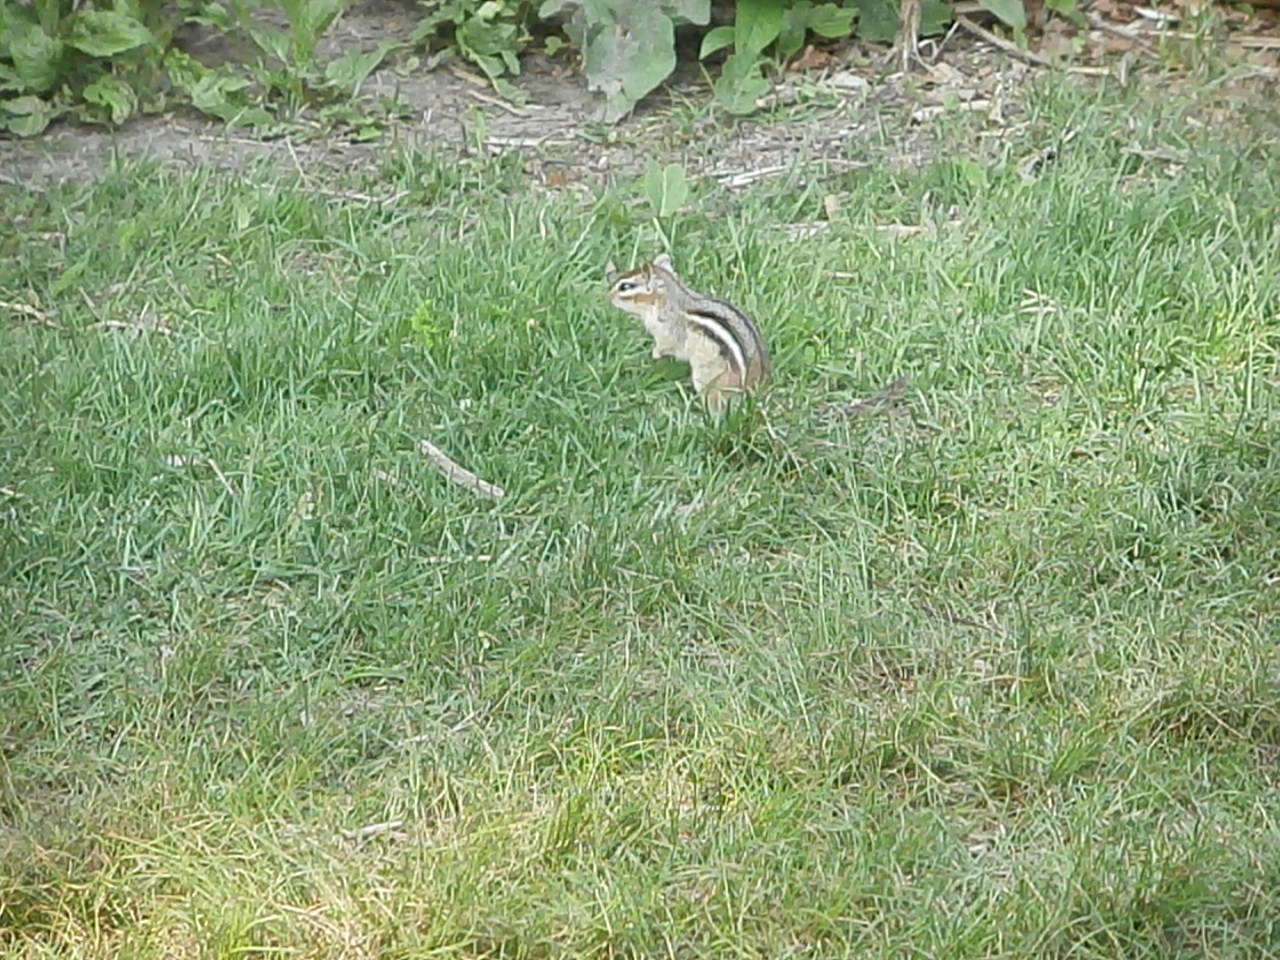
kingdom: Animalia
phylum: Chordata
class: Mammalia
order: Rodentia
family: Sciuridae
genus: Tamias
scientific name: Tamias striatus
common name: Eastern chipmunk
